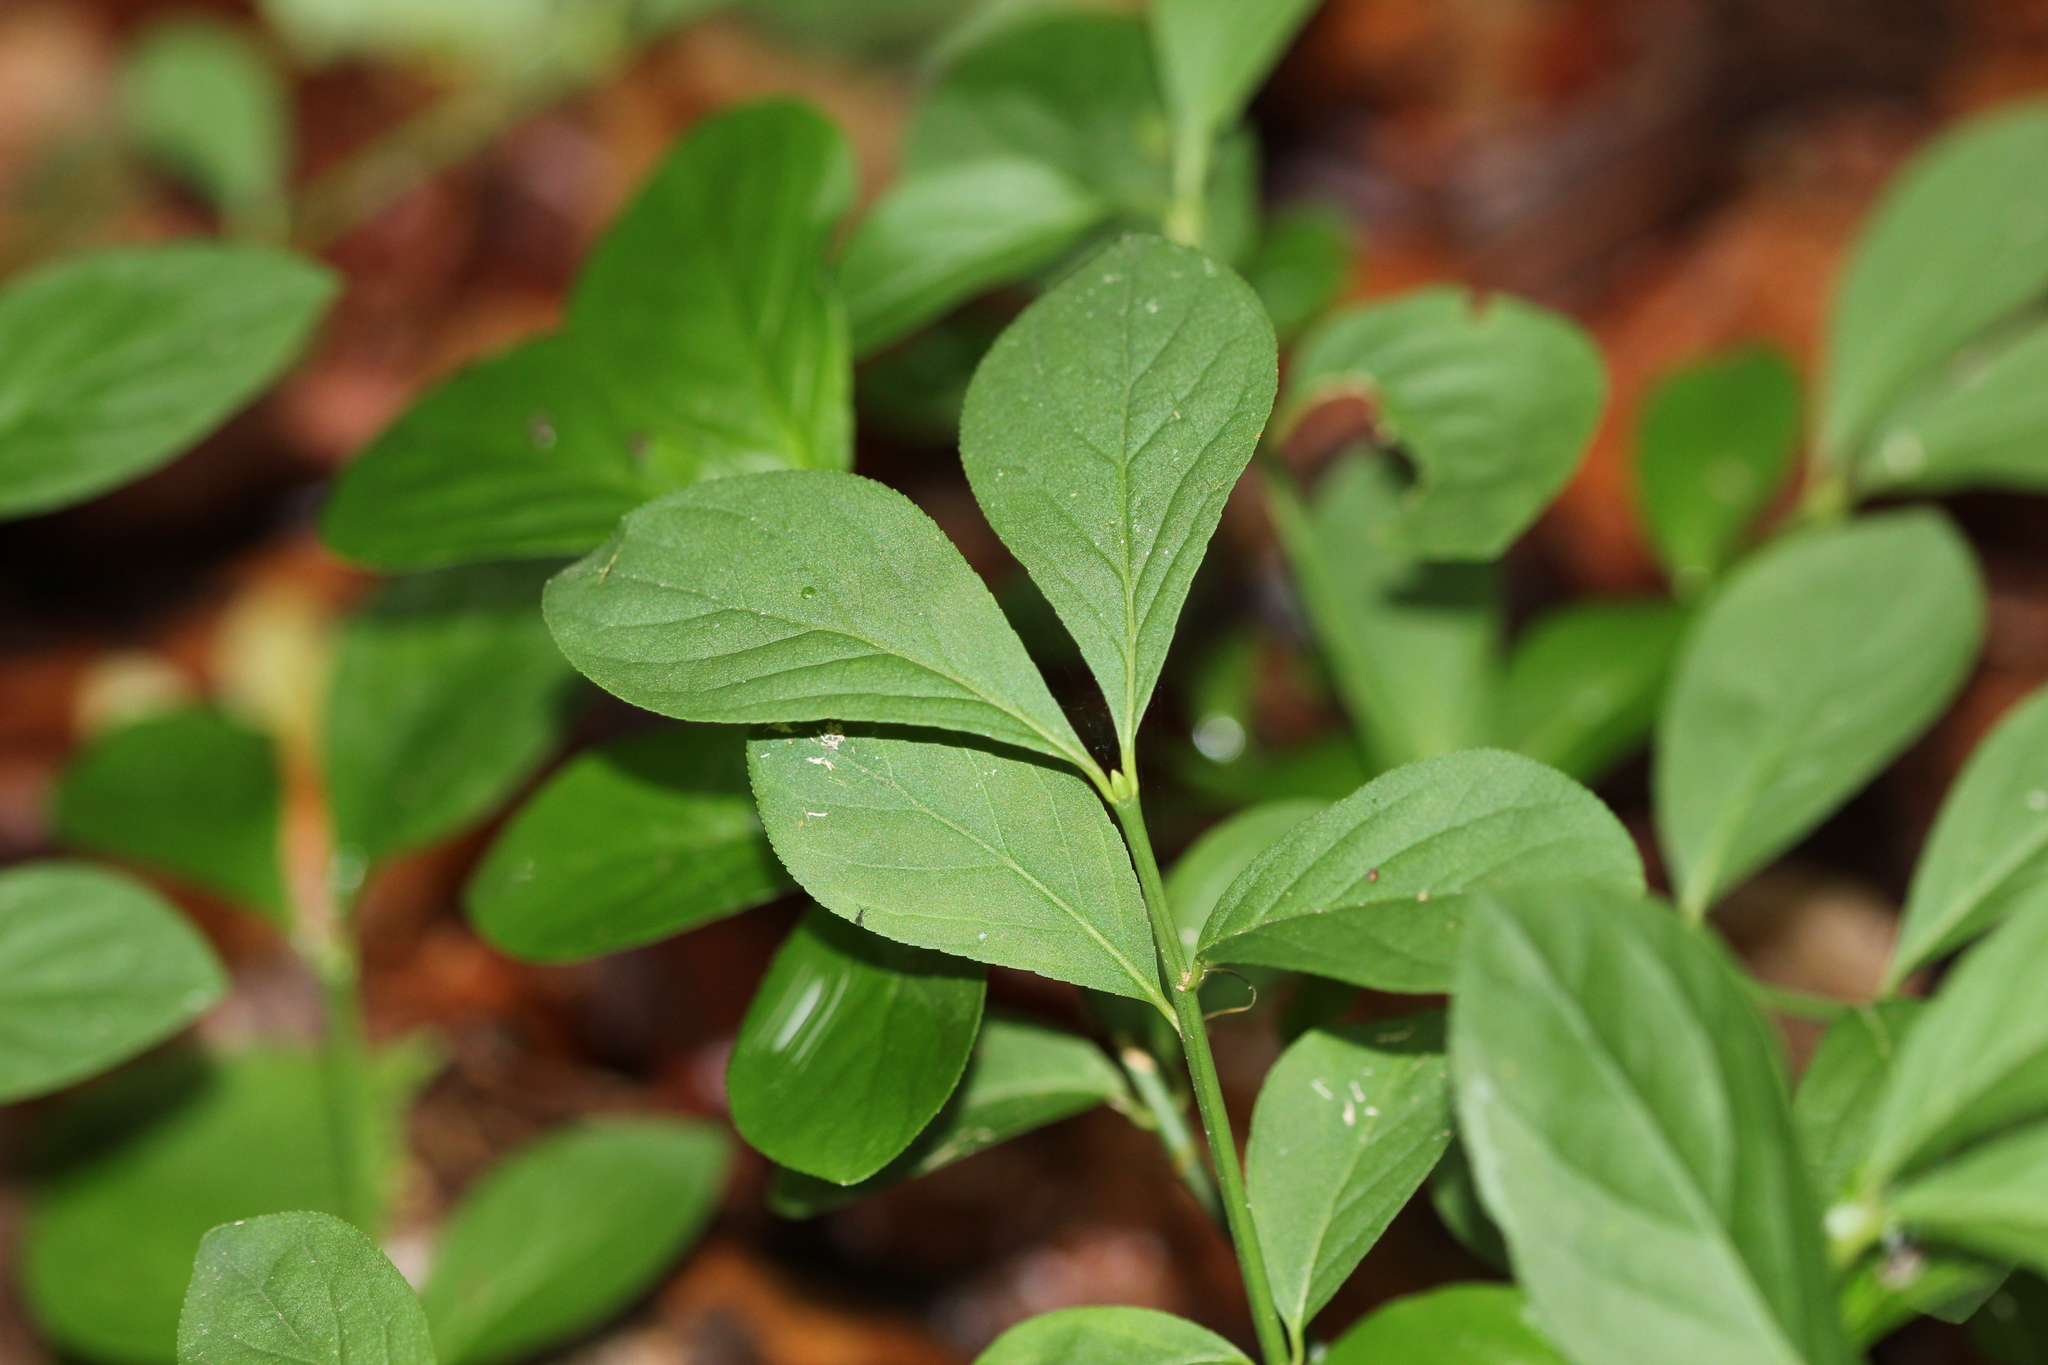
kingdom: Plantae
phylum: Tracheophyta
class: Magnoliopsida
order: Celastrales
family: Celastraceae
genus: Euonymus
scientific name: Euonymus obovatus
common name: Running strawberry-bush
